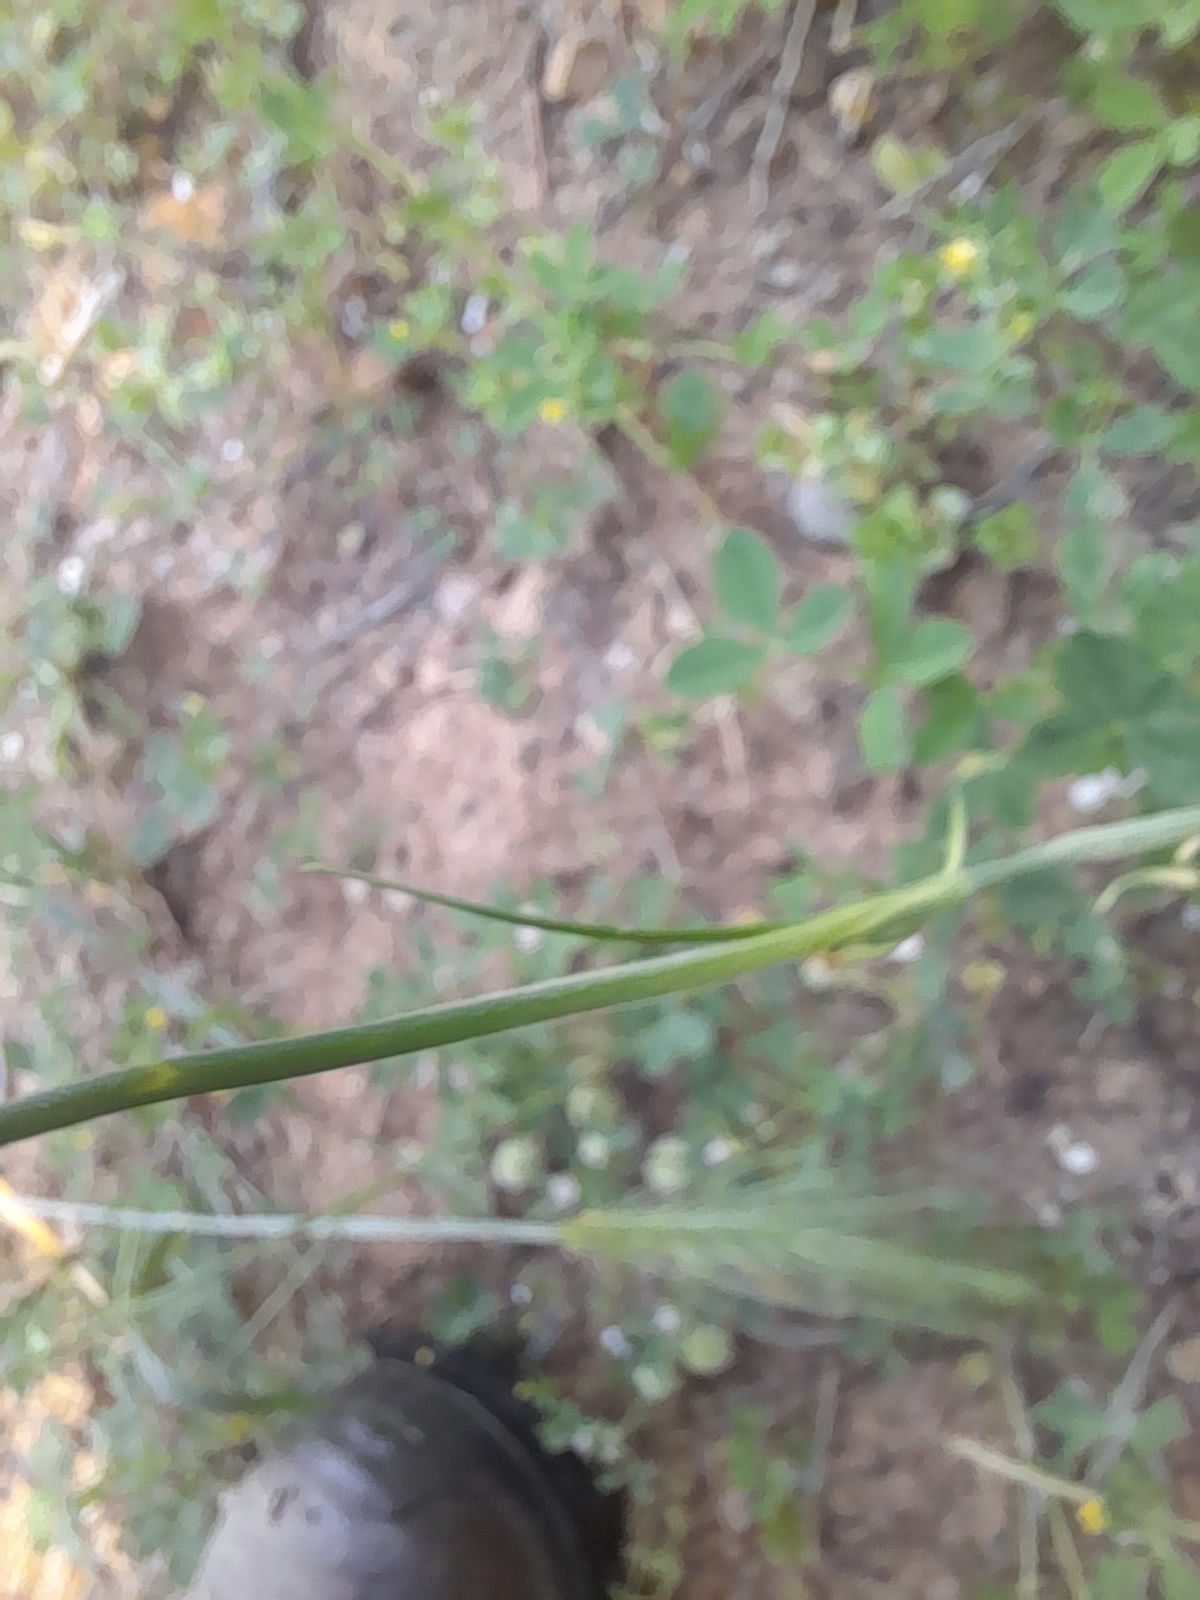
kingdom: Plantae
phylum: Tracheophyta
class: Magnoliopsida
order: Caryophyllales
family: Caryophyllaceae
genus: Petrorhagia
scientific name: Petrorhagia dubia
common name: Hairypink
